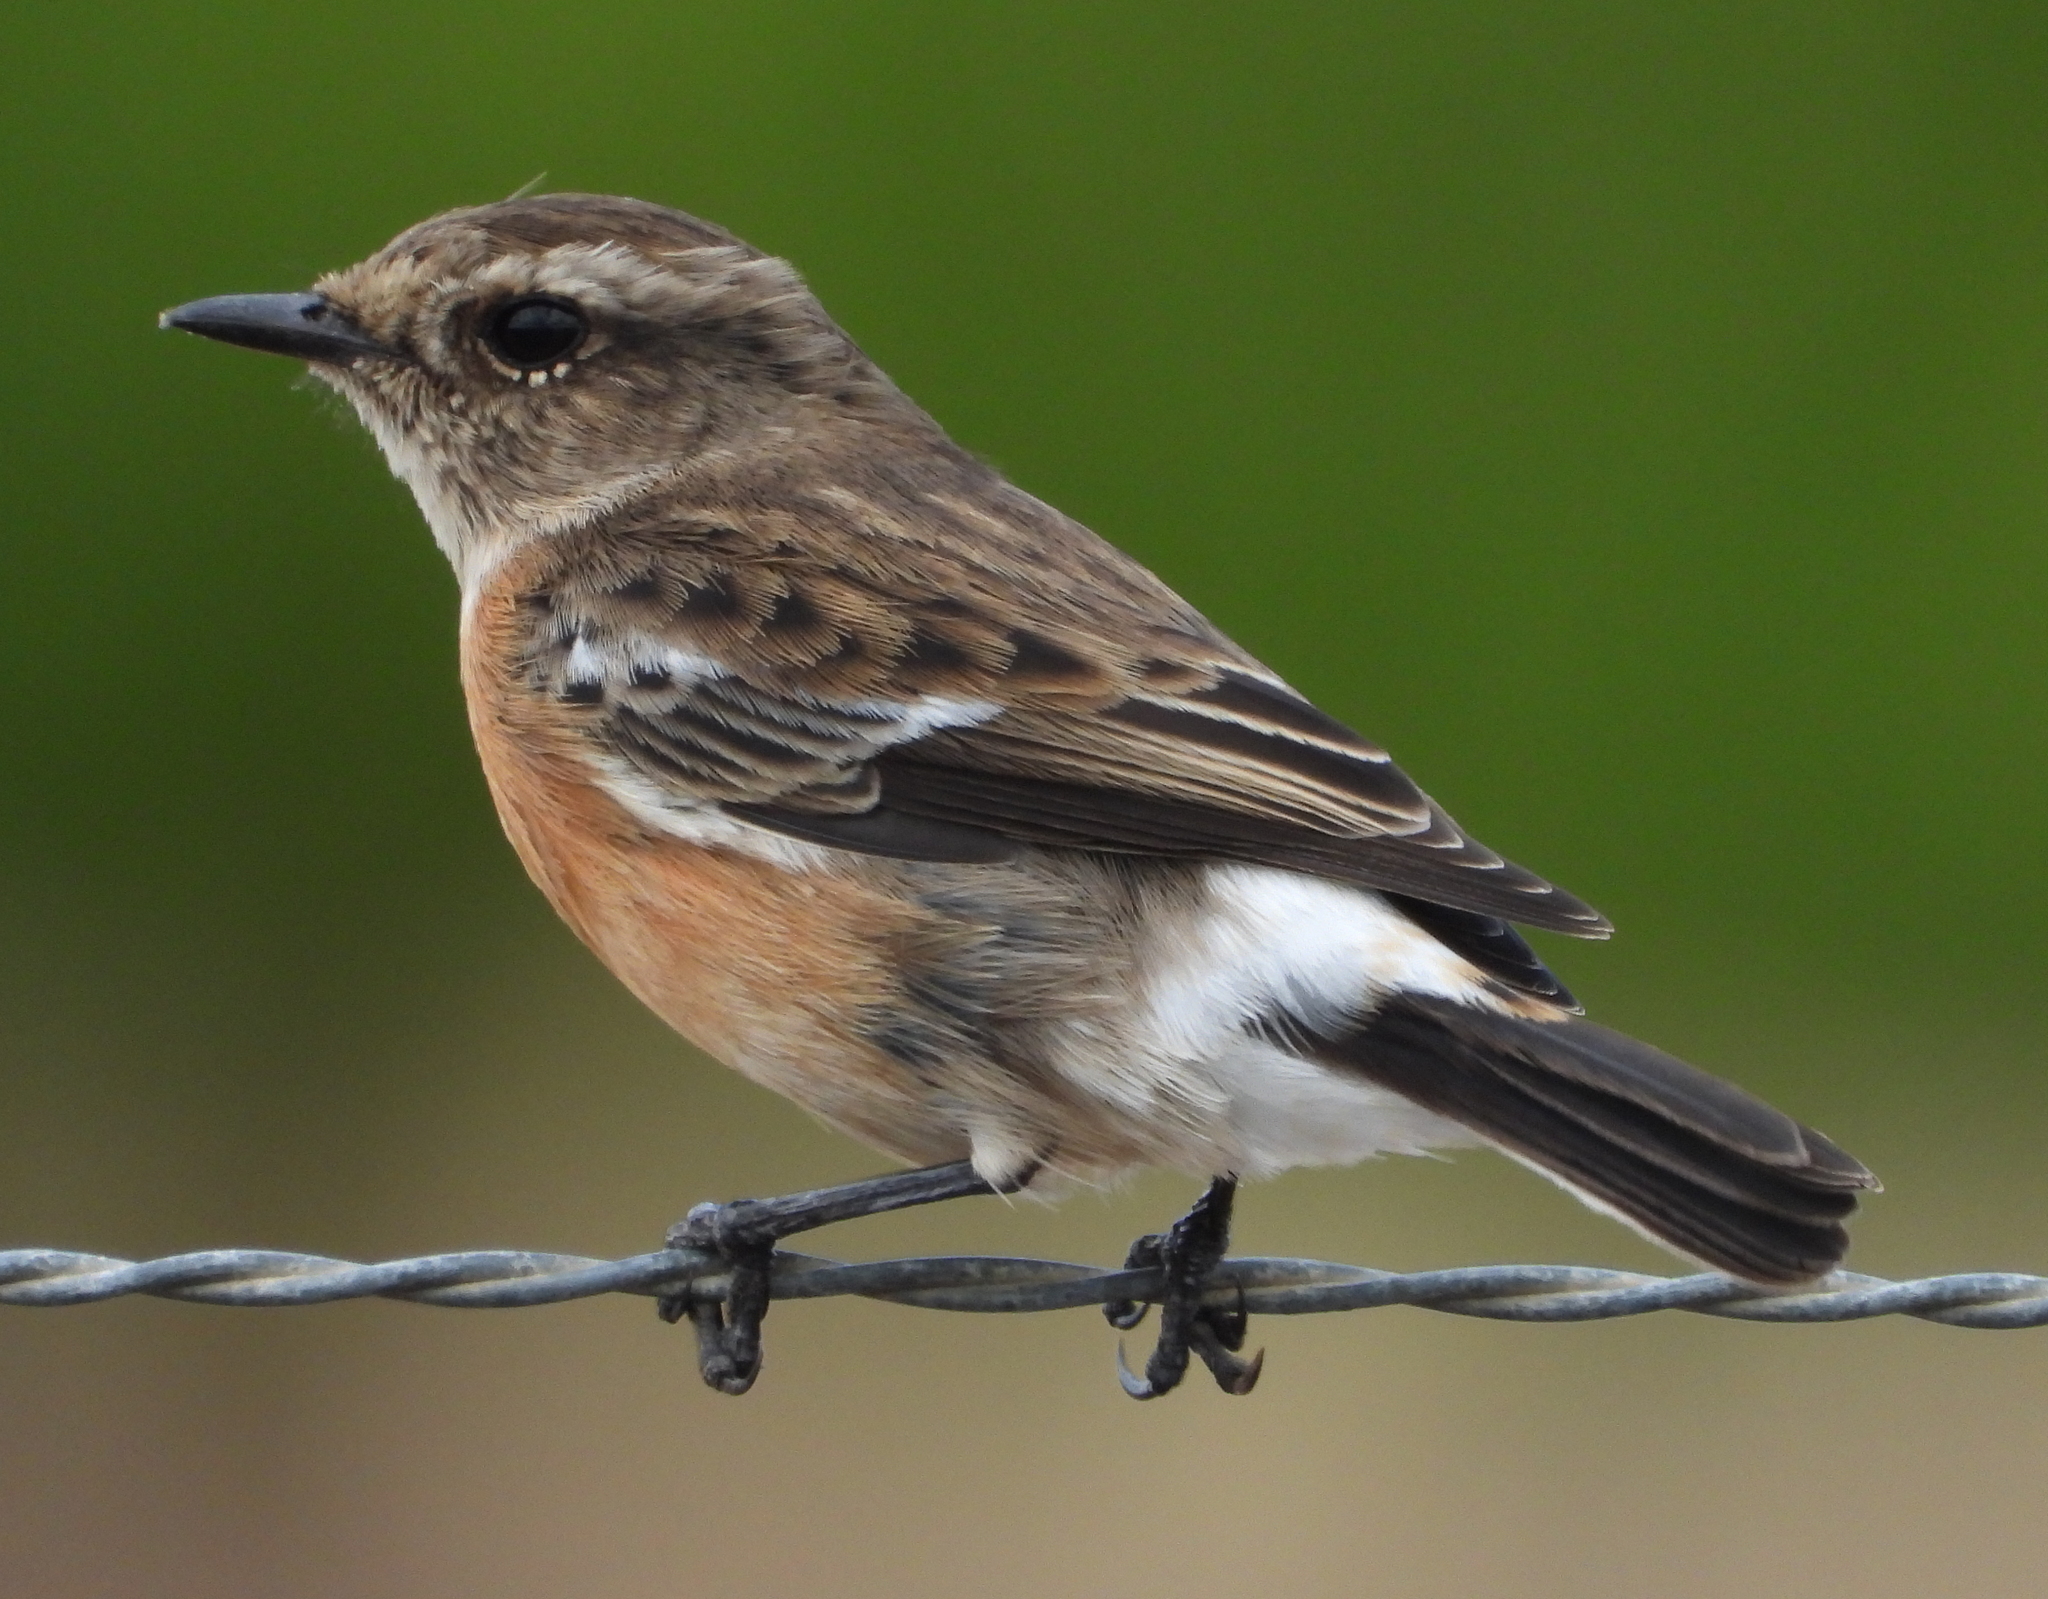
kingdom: Animalia
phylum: Chordata
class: Aves
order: Passeriformes
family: Muscicapidae
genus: Saxicola
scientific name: Saxicola torquatus
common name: African stonechat
